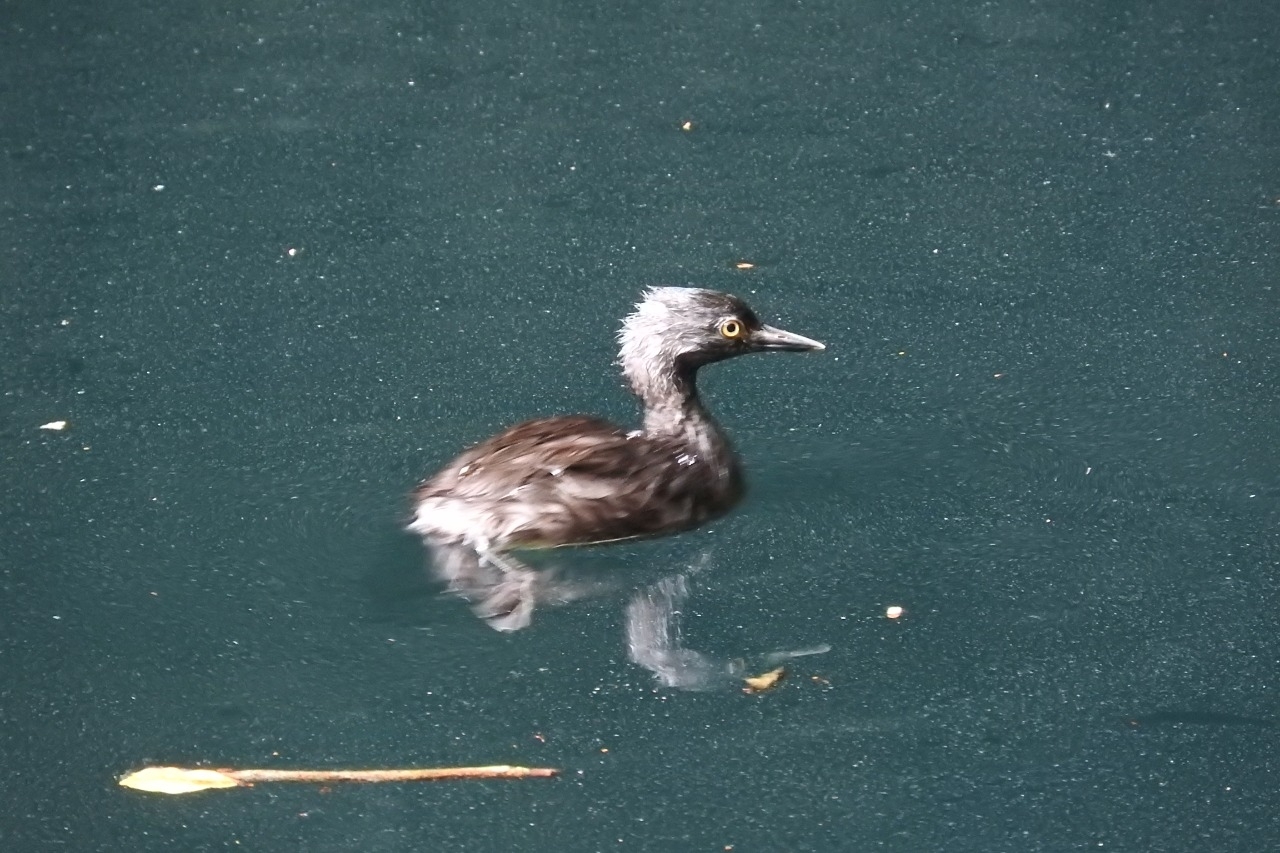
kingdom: Animalia
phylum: Chordata
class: Aves
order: Podicipediformes
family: Podicipedidae
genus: Tachybaptus
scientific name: Tachybaptus dominicus
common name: Least grebe
